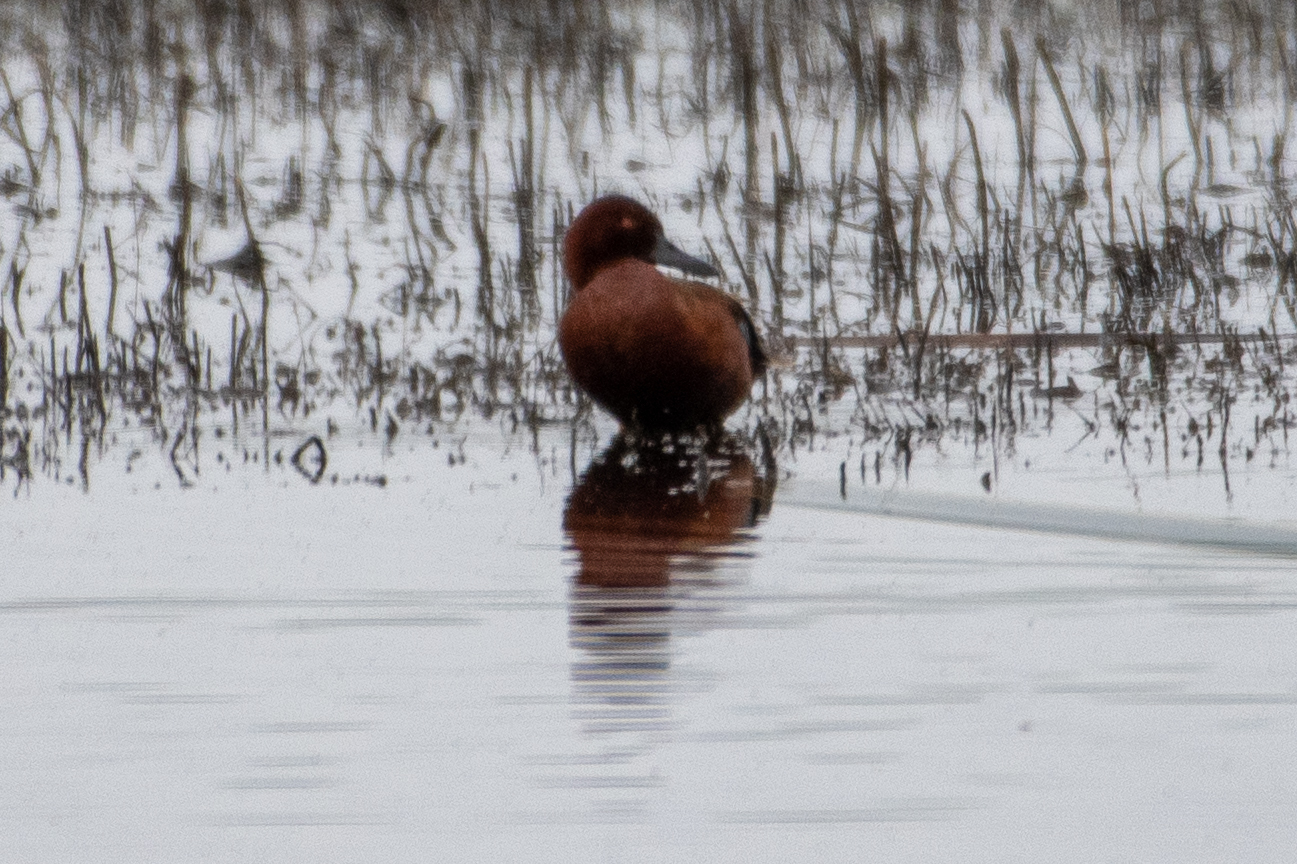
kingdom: Animalia
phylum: Chordata
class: Aves
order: Anseriformes
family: Anatidae
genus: Spatula
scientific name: Spatula cyanoptera
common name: Cinnamon teal
